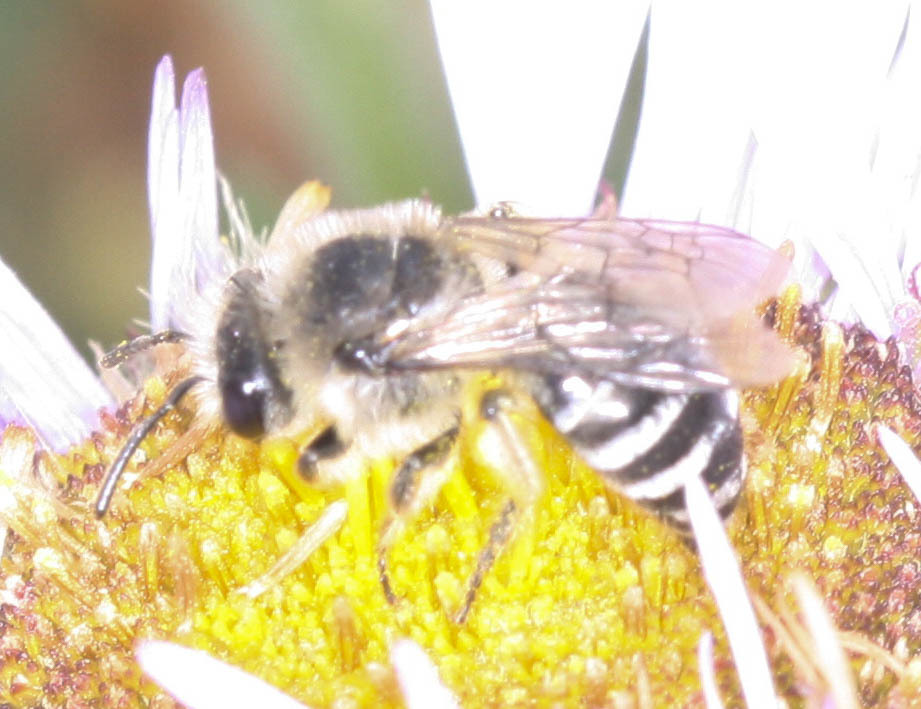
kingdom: Animalia
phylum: Arthropoda
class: Insecta
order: Hymenoptera
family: Colletidae
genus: Colletes
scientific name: Colletes
